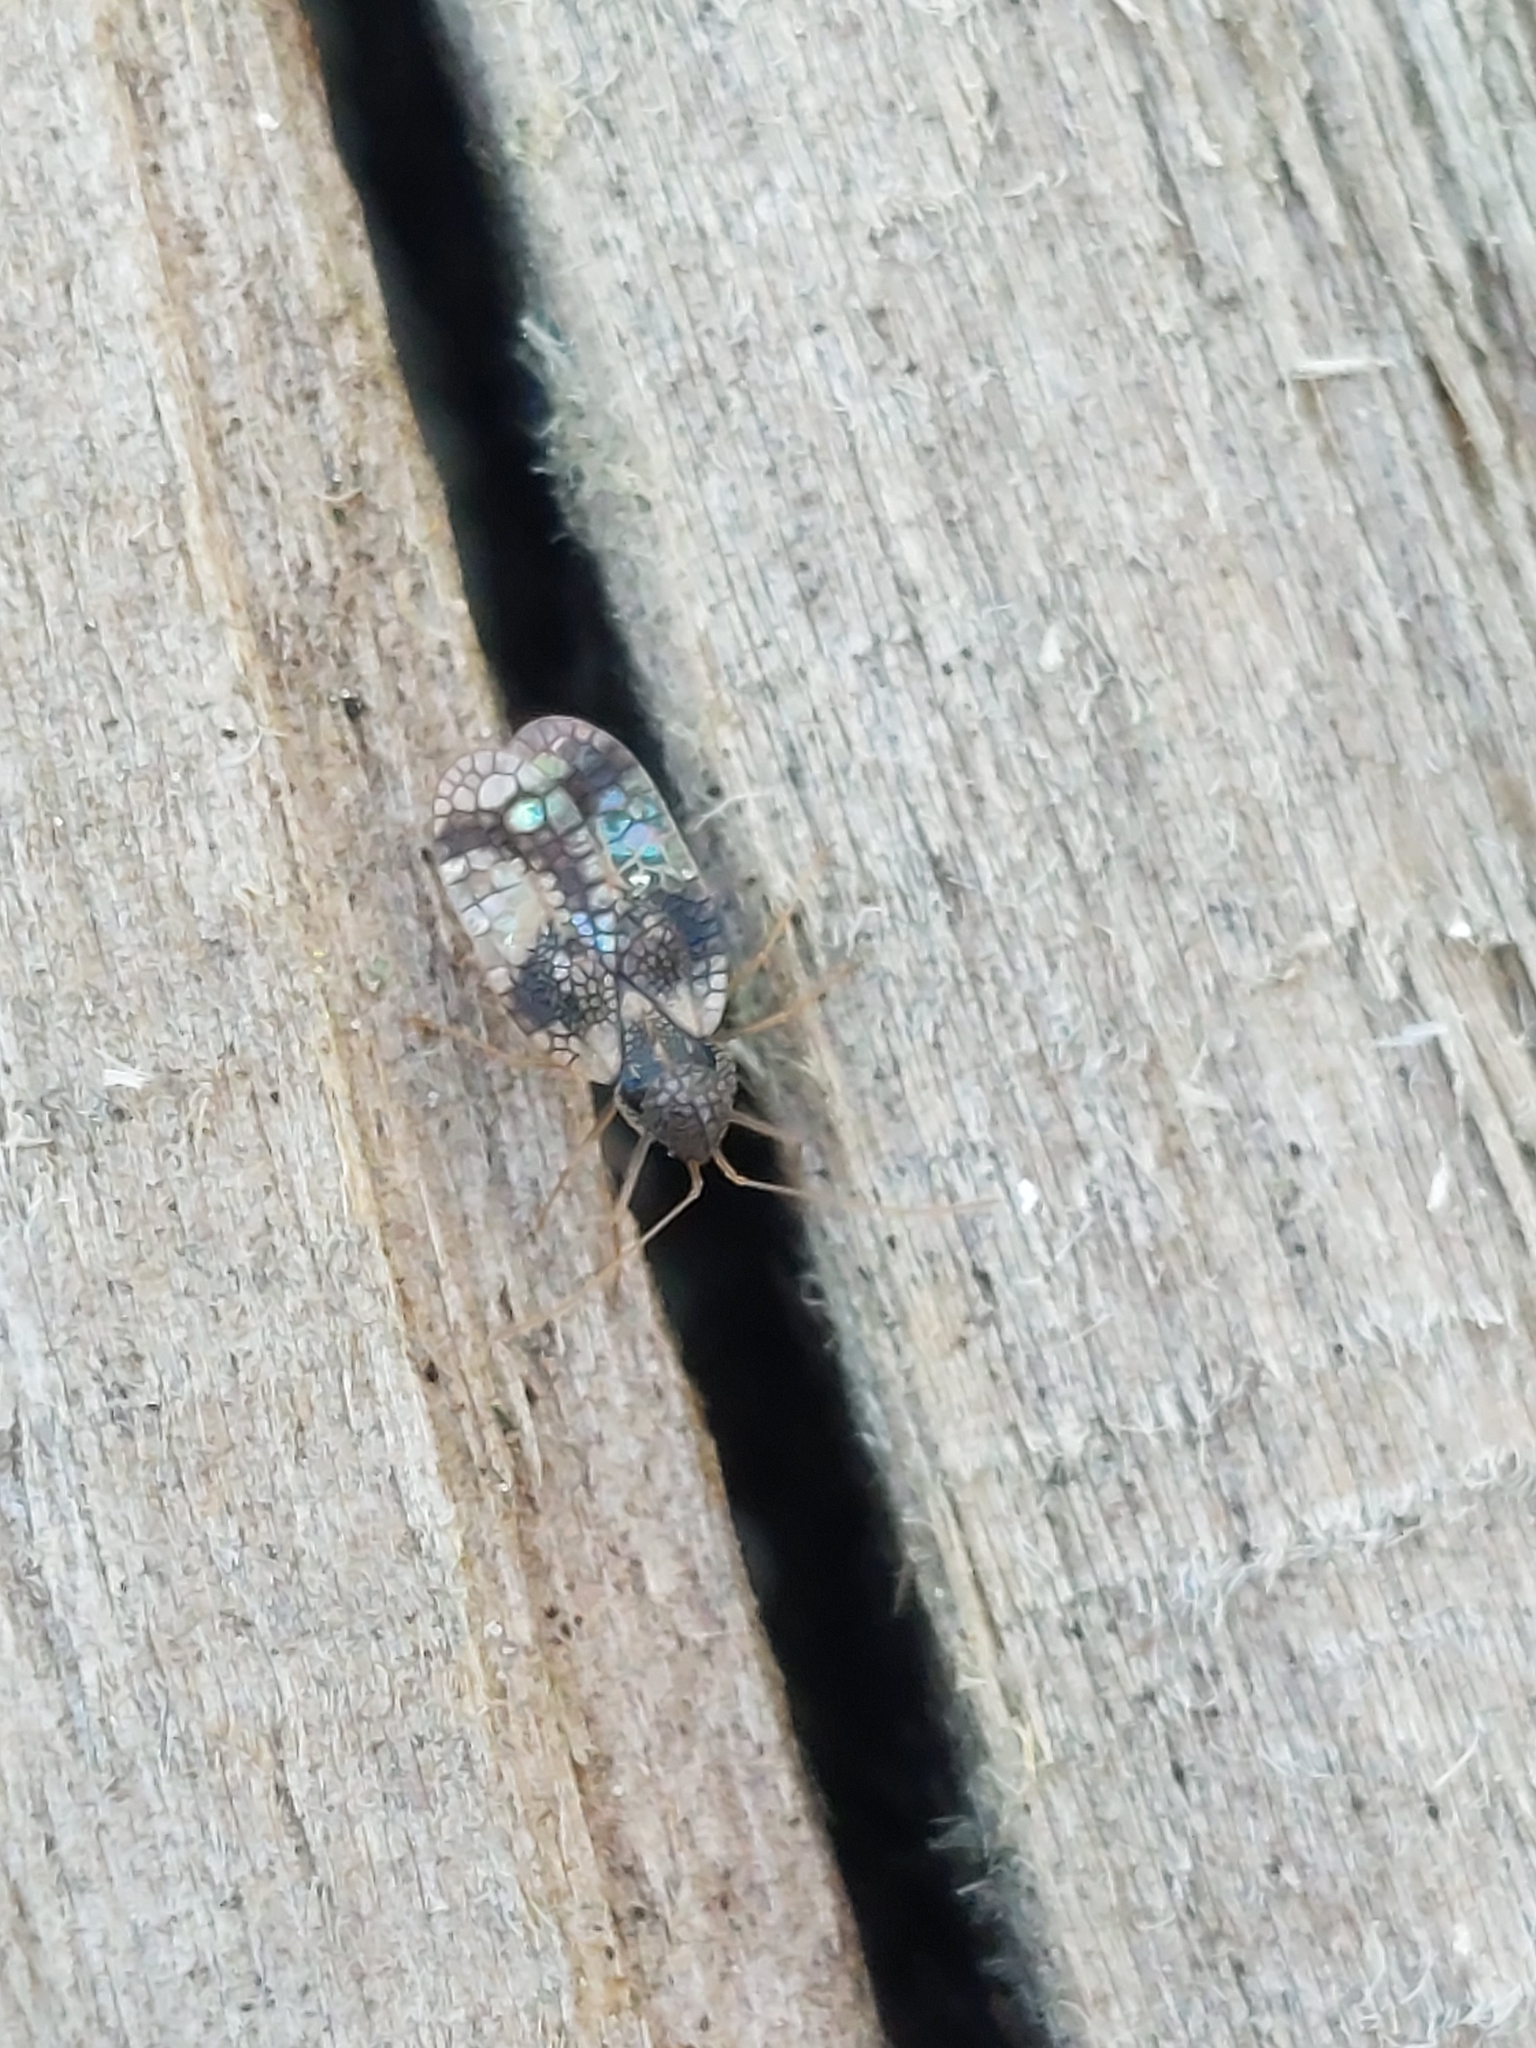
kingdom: Animalia
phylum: Arthropoda
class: Insecta
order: Hemiptera
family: Tingidae
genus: Stephanitis
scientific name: Stephanitis takeyai
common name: Andromeda lacebug
